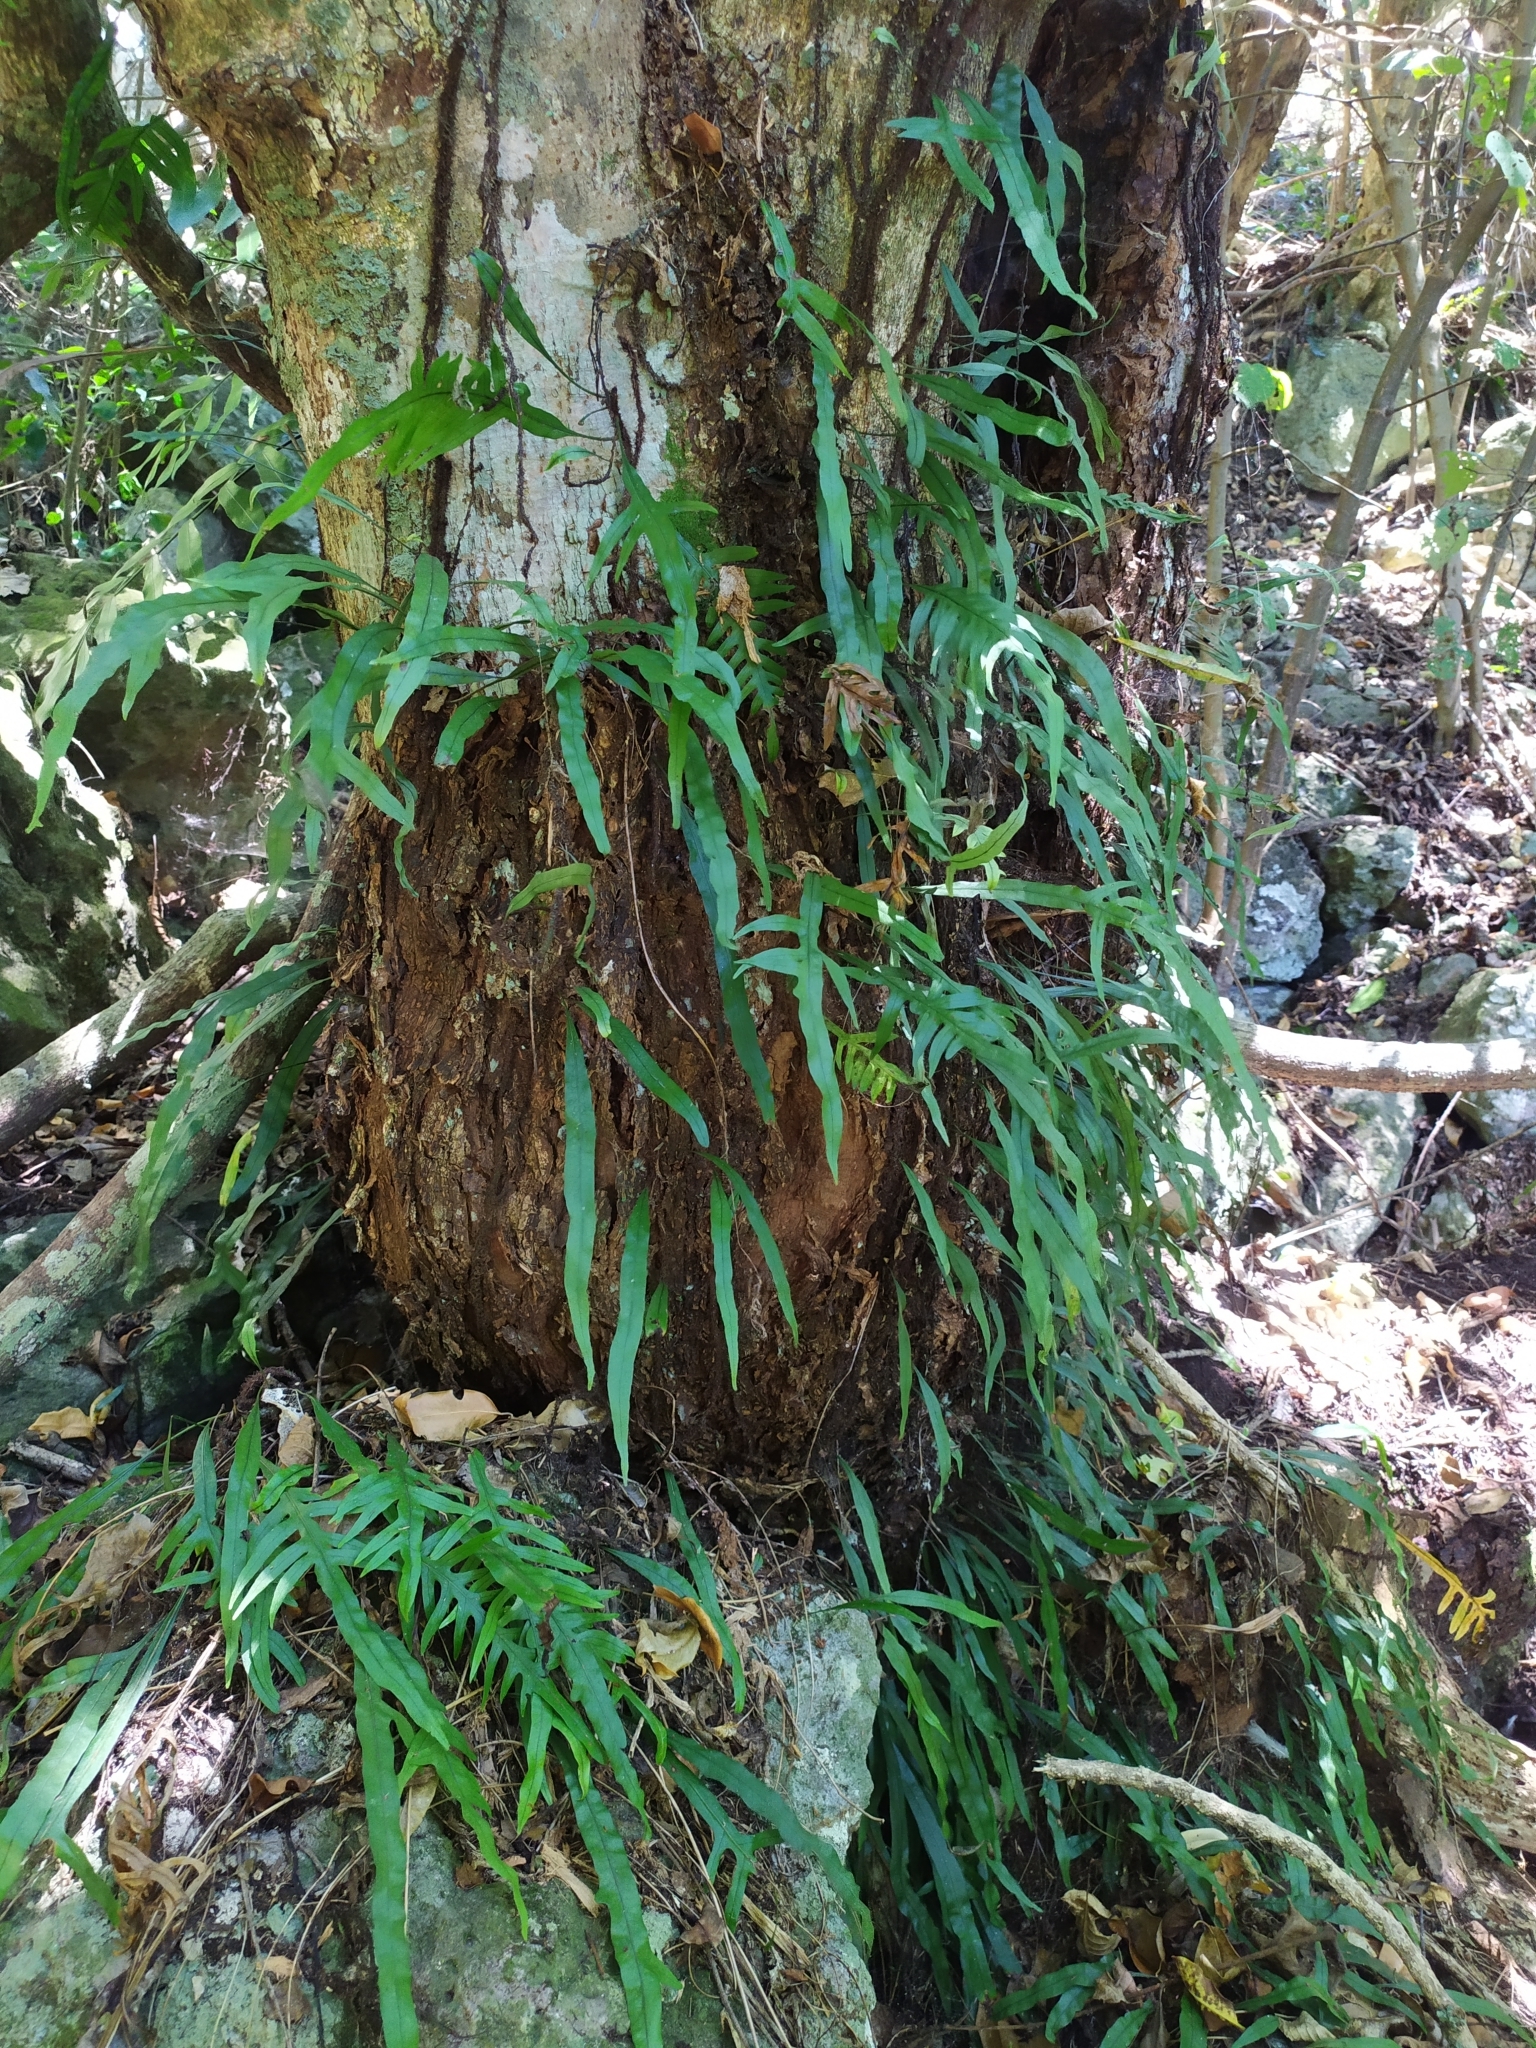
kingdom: Plantae
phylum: Tracheophyta
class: Polypodiopsida
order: Polypodiales
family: Polypodiaceae
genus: Lecanopteris
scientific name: Lecanopteris scandens
